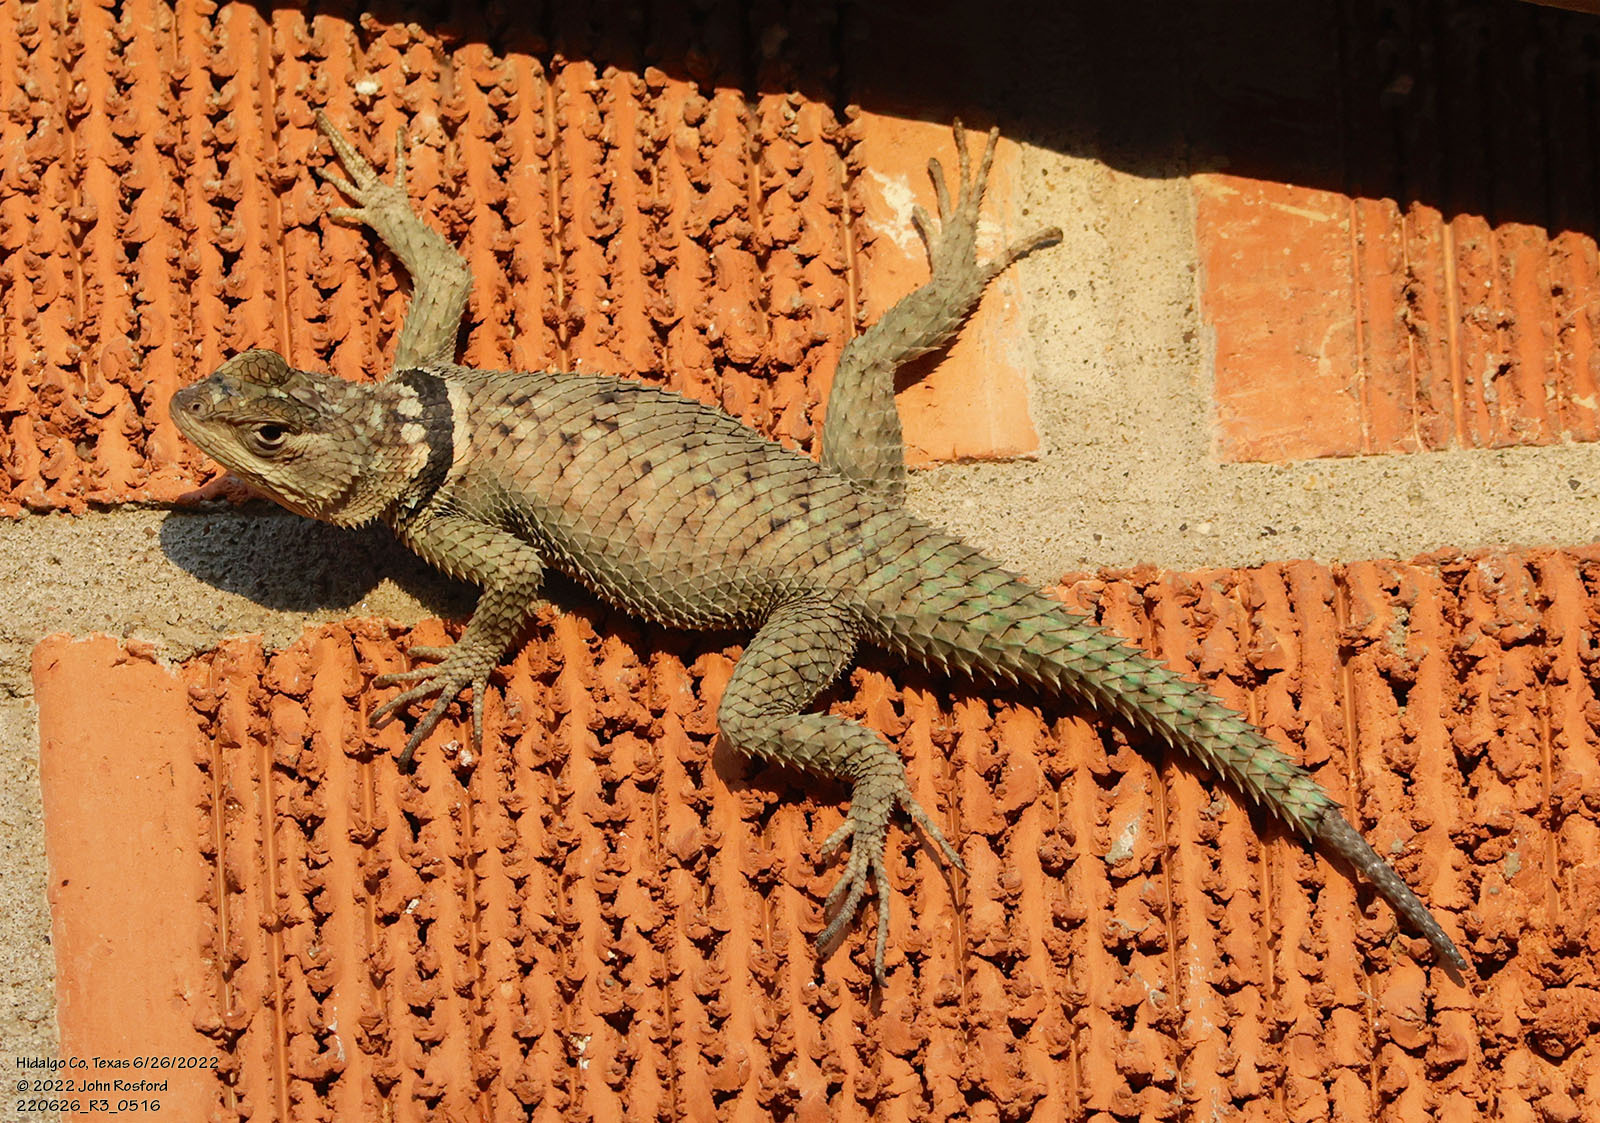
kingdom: Animalia
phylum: Chordata
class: Squamata
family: Phrynosomatidae
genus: Sceloporus
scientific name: Sceloporus cyanogenys
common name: Blue spiny lizard
